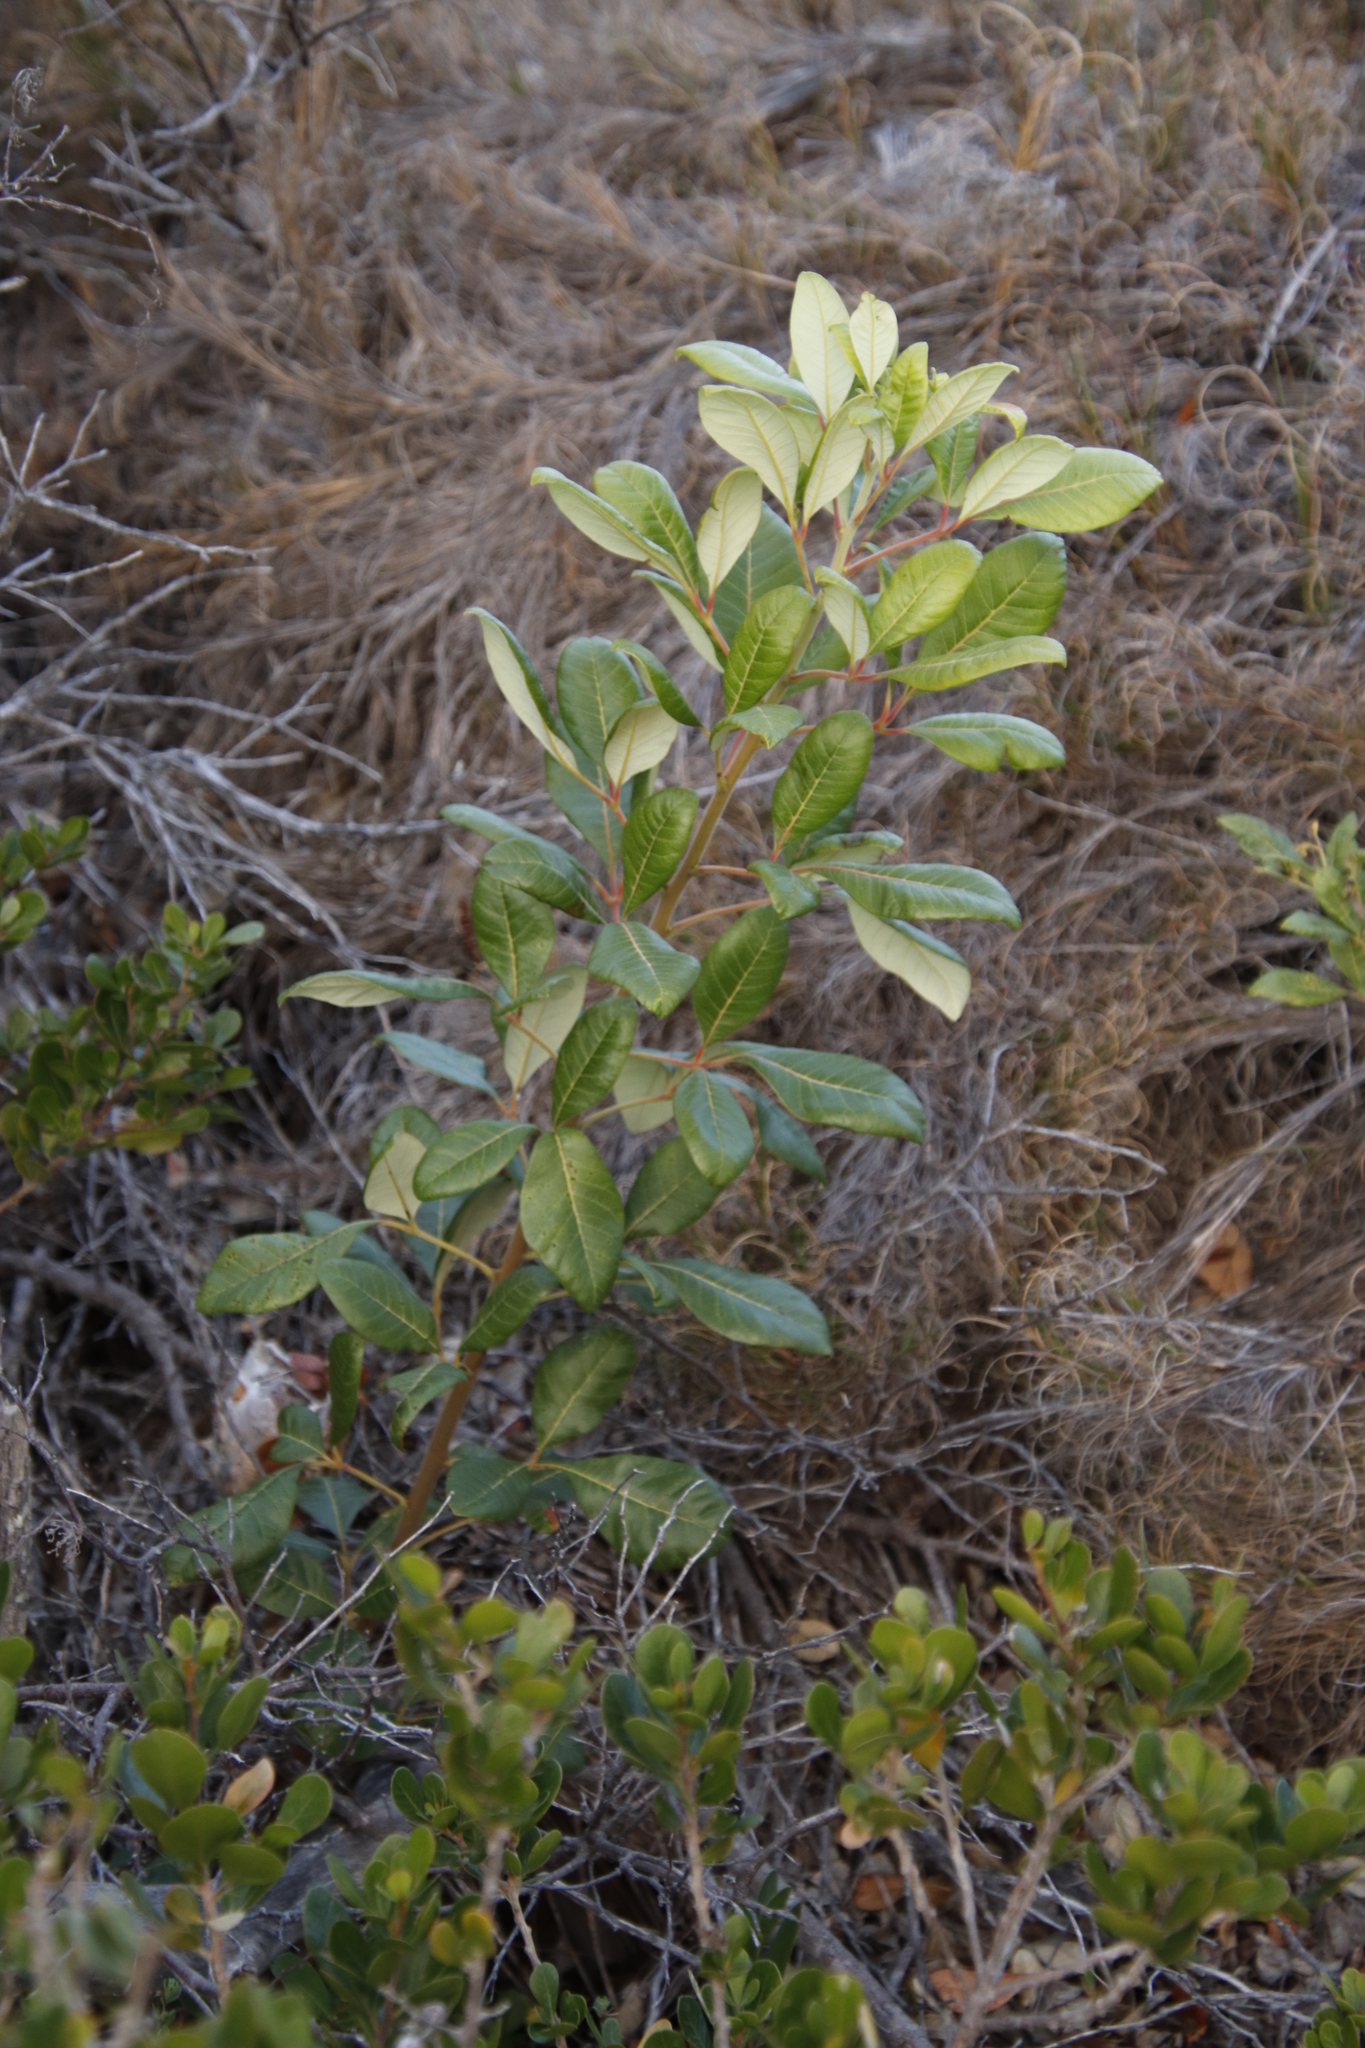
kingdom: Plantae
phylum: Tracheophyta
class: Magnoliopsida
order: Sapindales
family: Anacardiaceae
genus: Searsia
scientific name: Searsia tomentosa
